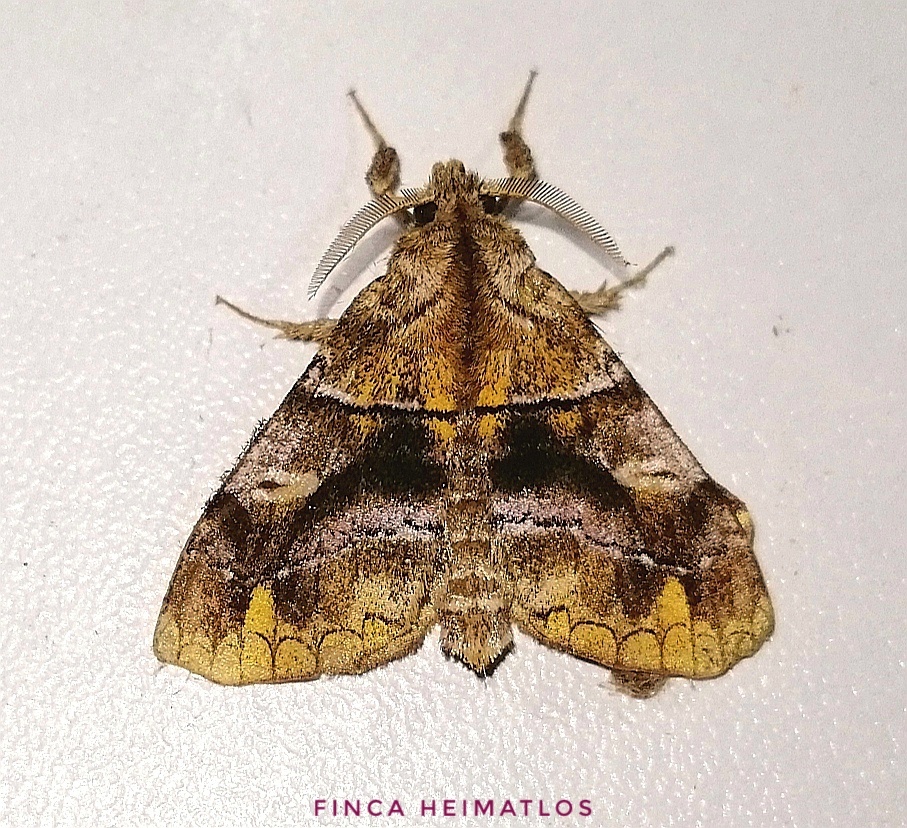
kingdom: Animalia
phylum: Arthropoda
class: Insecta
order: Lepidoptera
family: Apatelodidae
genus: Zanola
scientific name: Zanola verago
